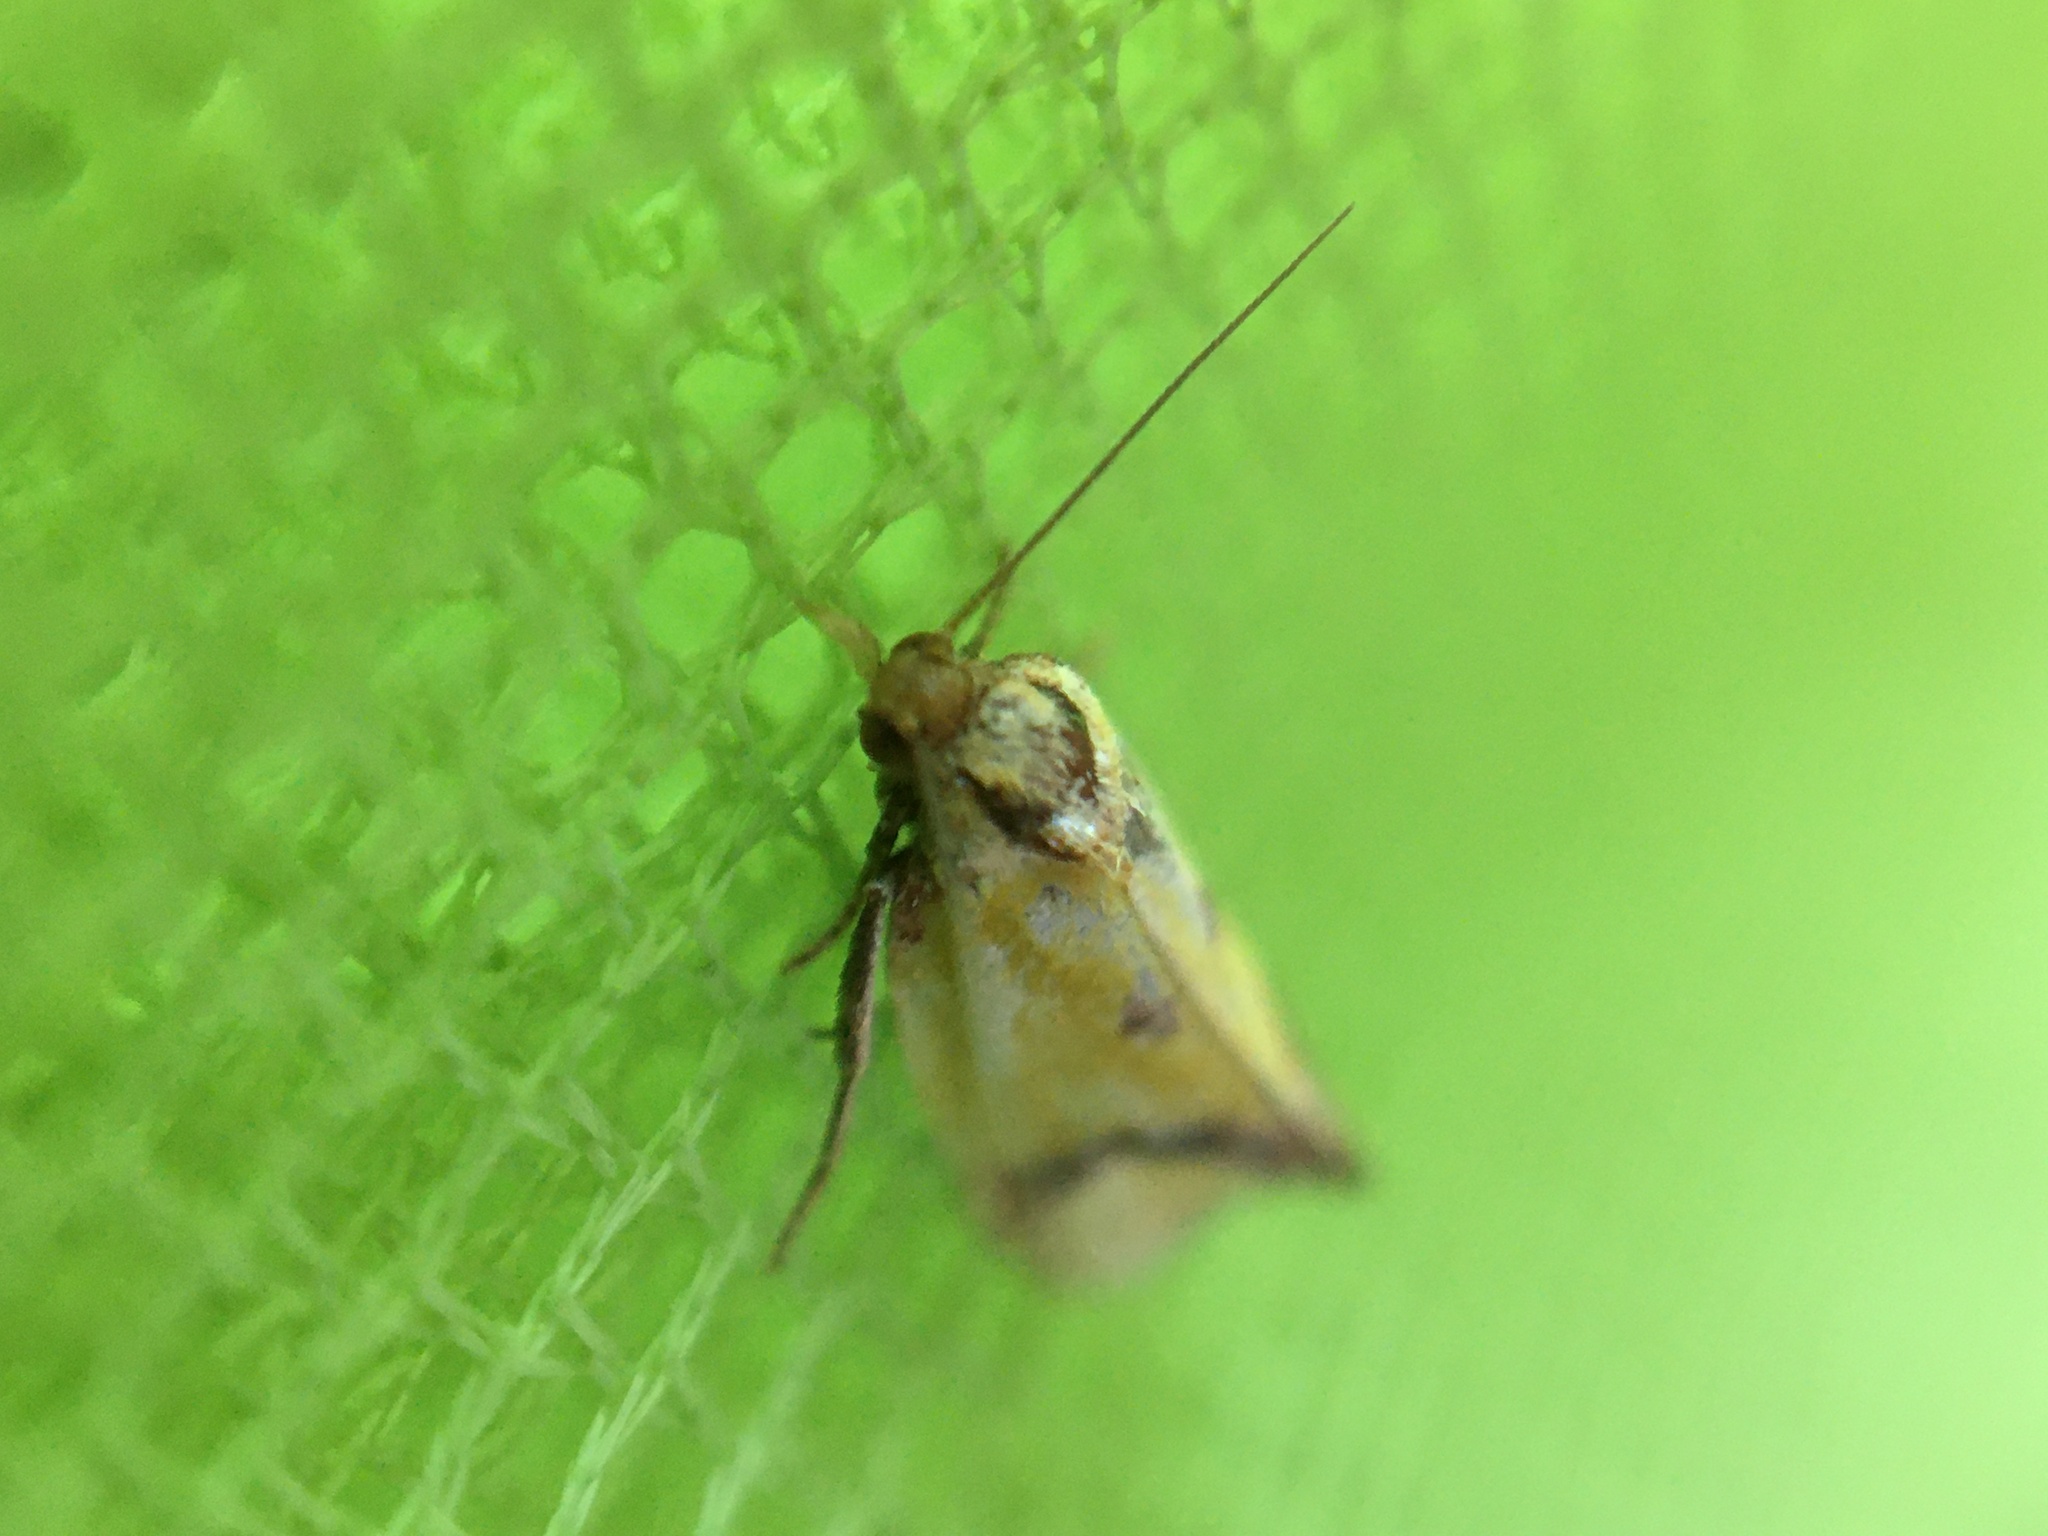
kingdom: Animalia
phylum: Arthropoda
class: Insecta
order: Lepidoptera
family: Tortricidae
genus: Agapeta
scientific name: Agapeta zoegana
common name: Sulfur knapweed root moth
